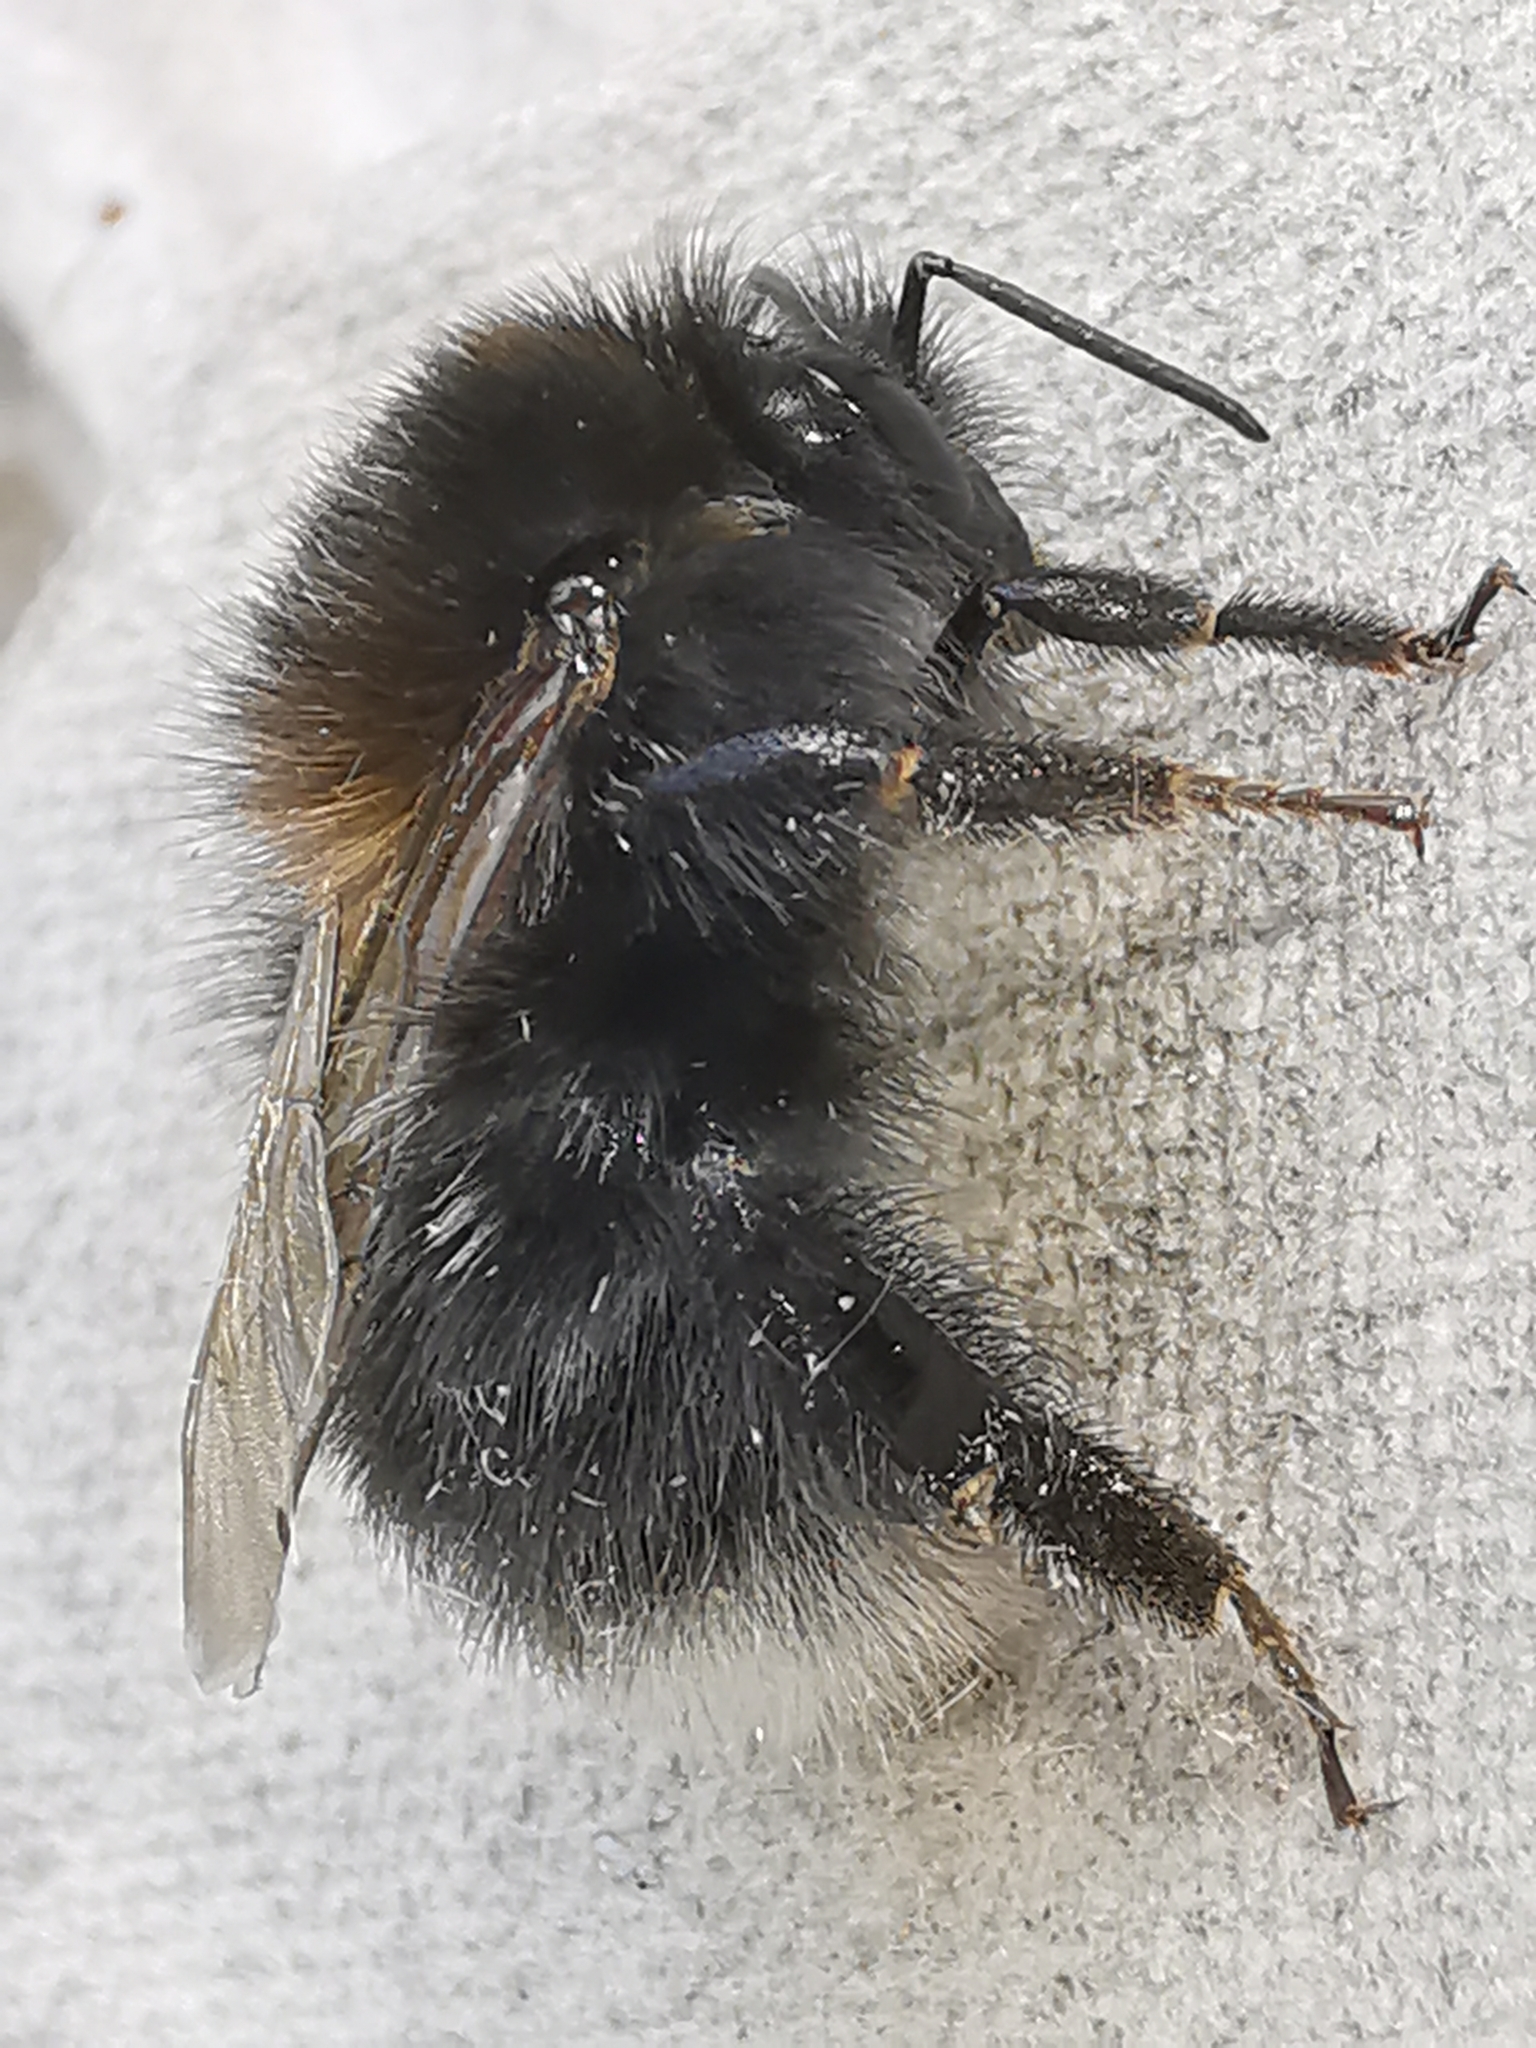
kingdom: Animalia
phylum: Arthropoda
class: Insecta
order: Hymenoptera
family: Apidae
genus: Bombus
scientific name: Bombus hypnorum
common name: New garden bumblebee
